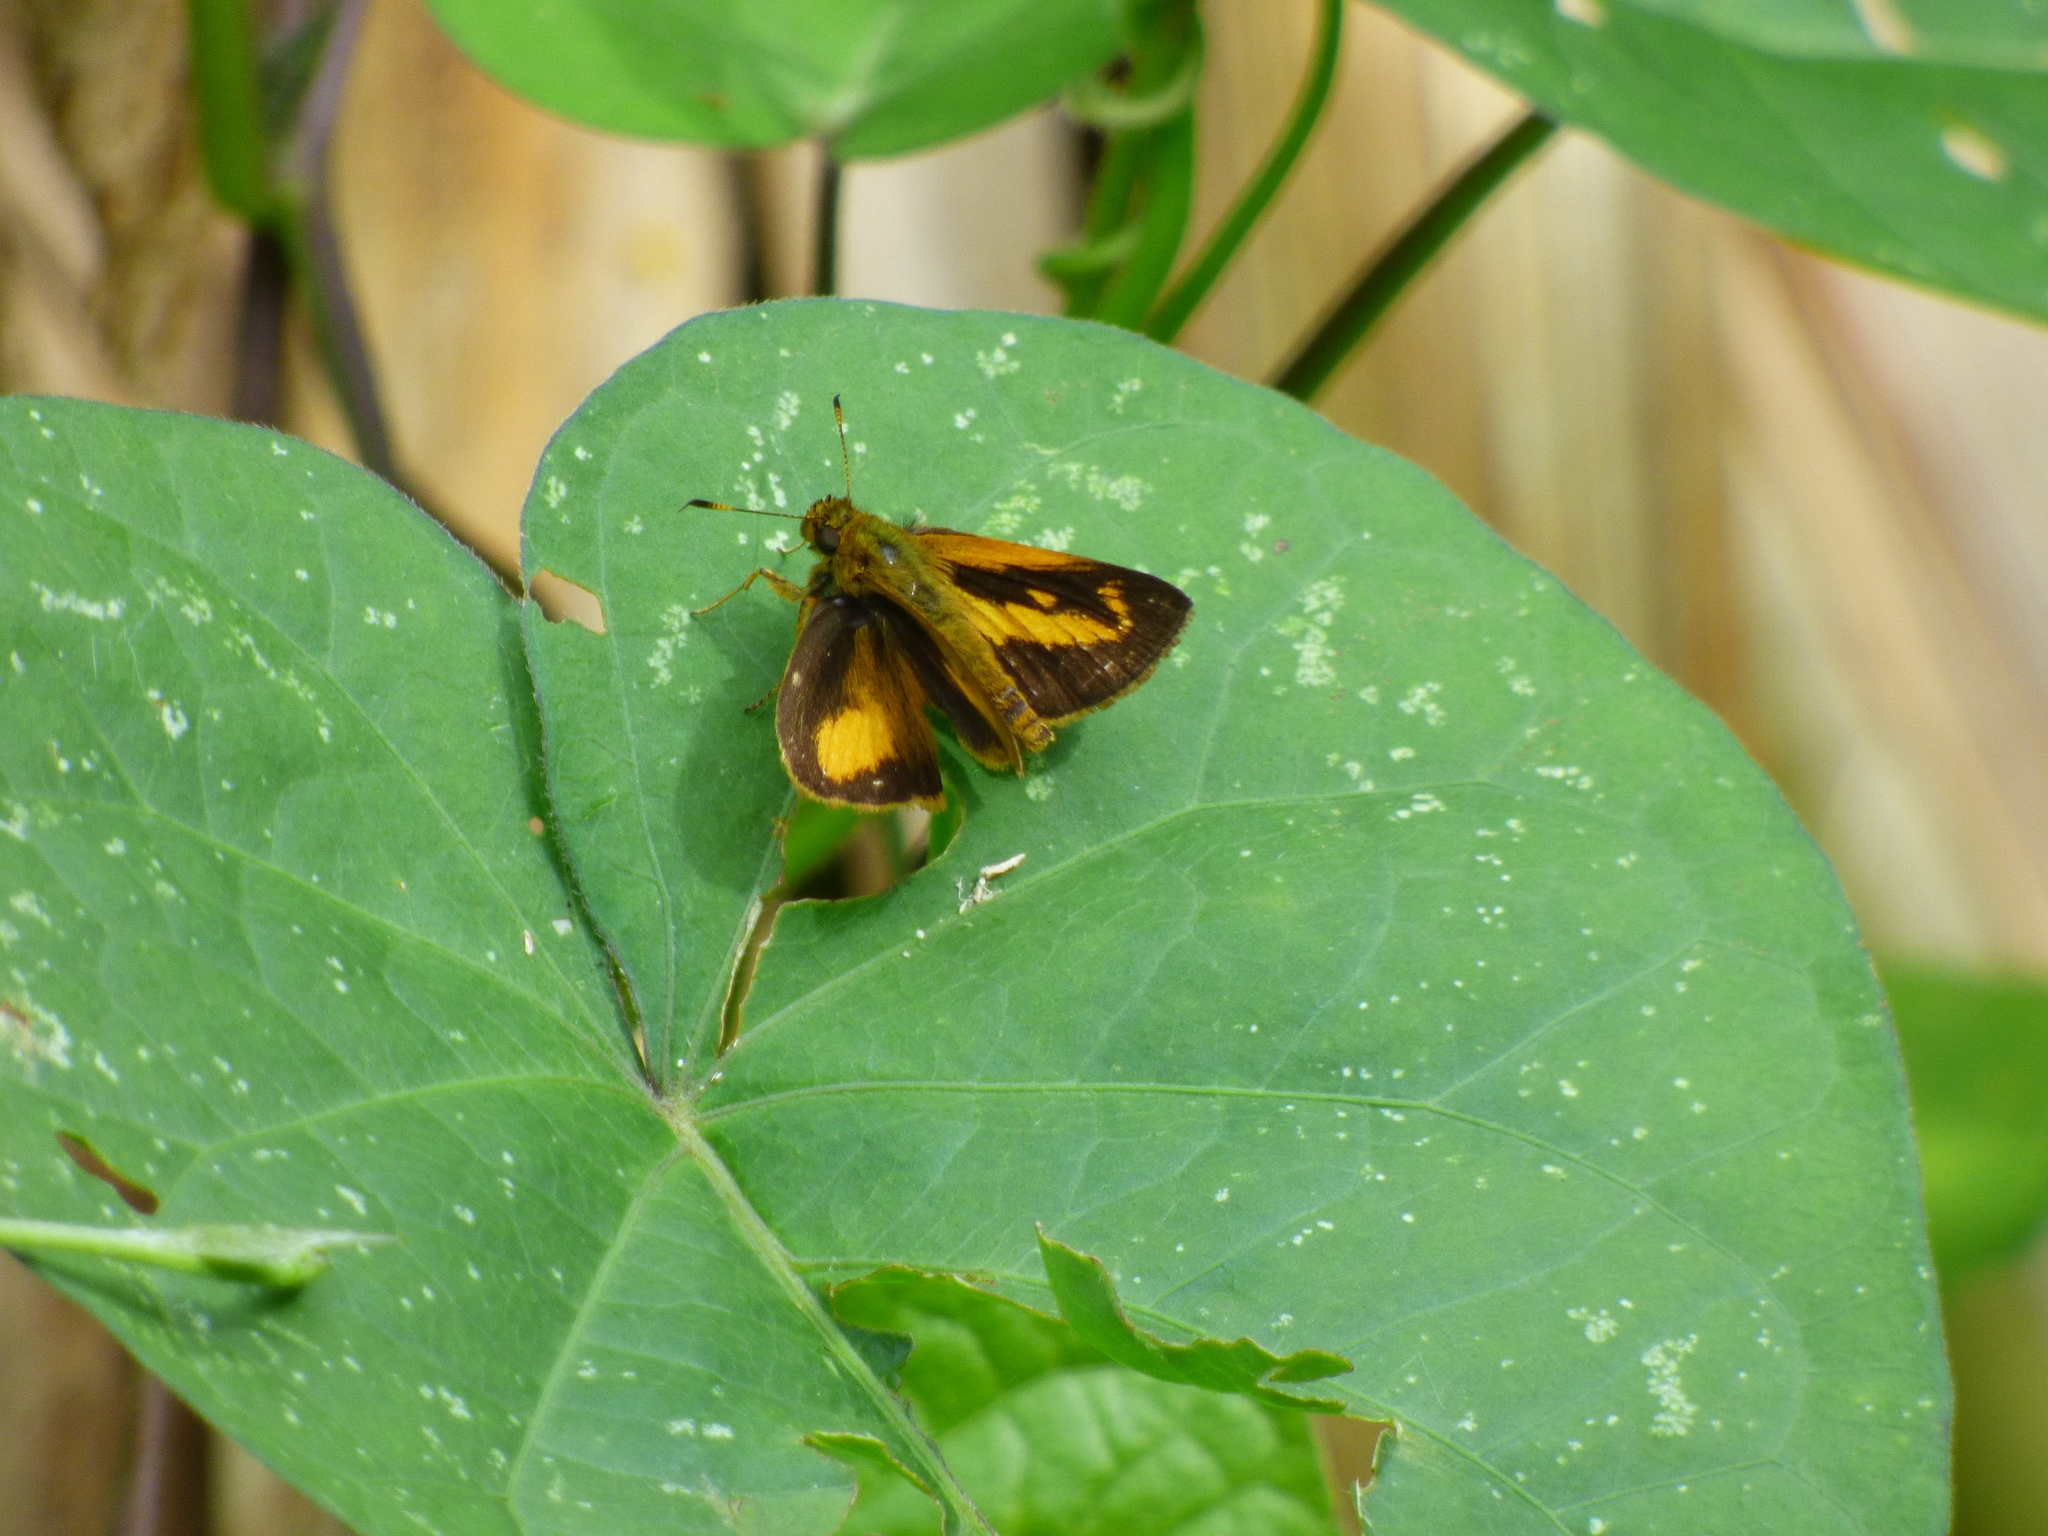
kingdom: Animalia
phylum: Arthropoda
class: Insecta
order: Lepidoptera
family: Hesperiidae
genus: Anthoptus
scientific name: Anthoptus epictetus
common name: Trailside skipper
